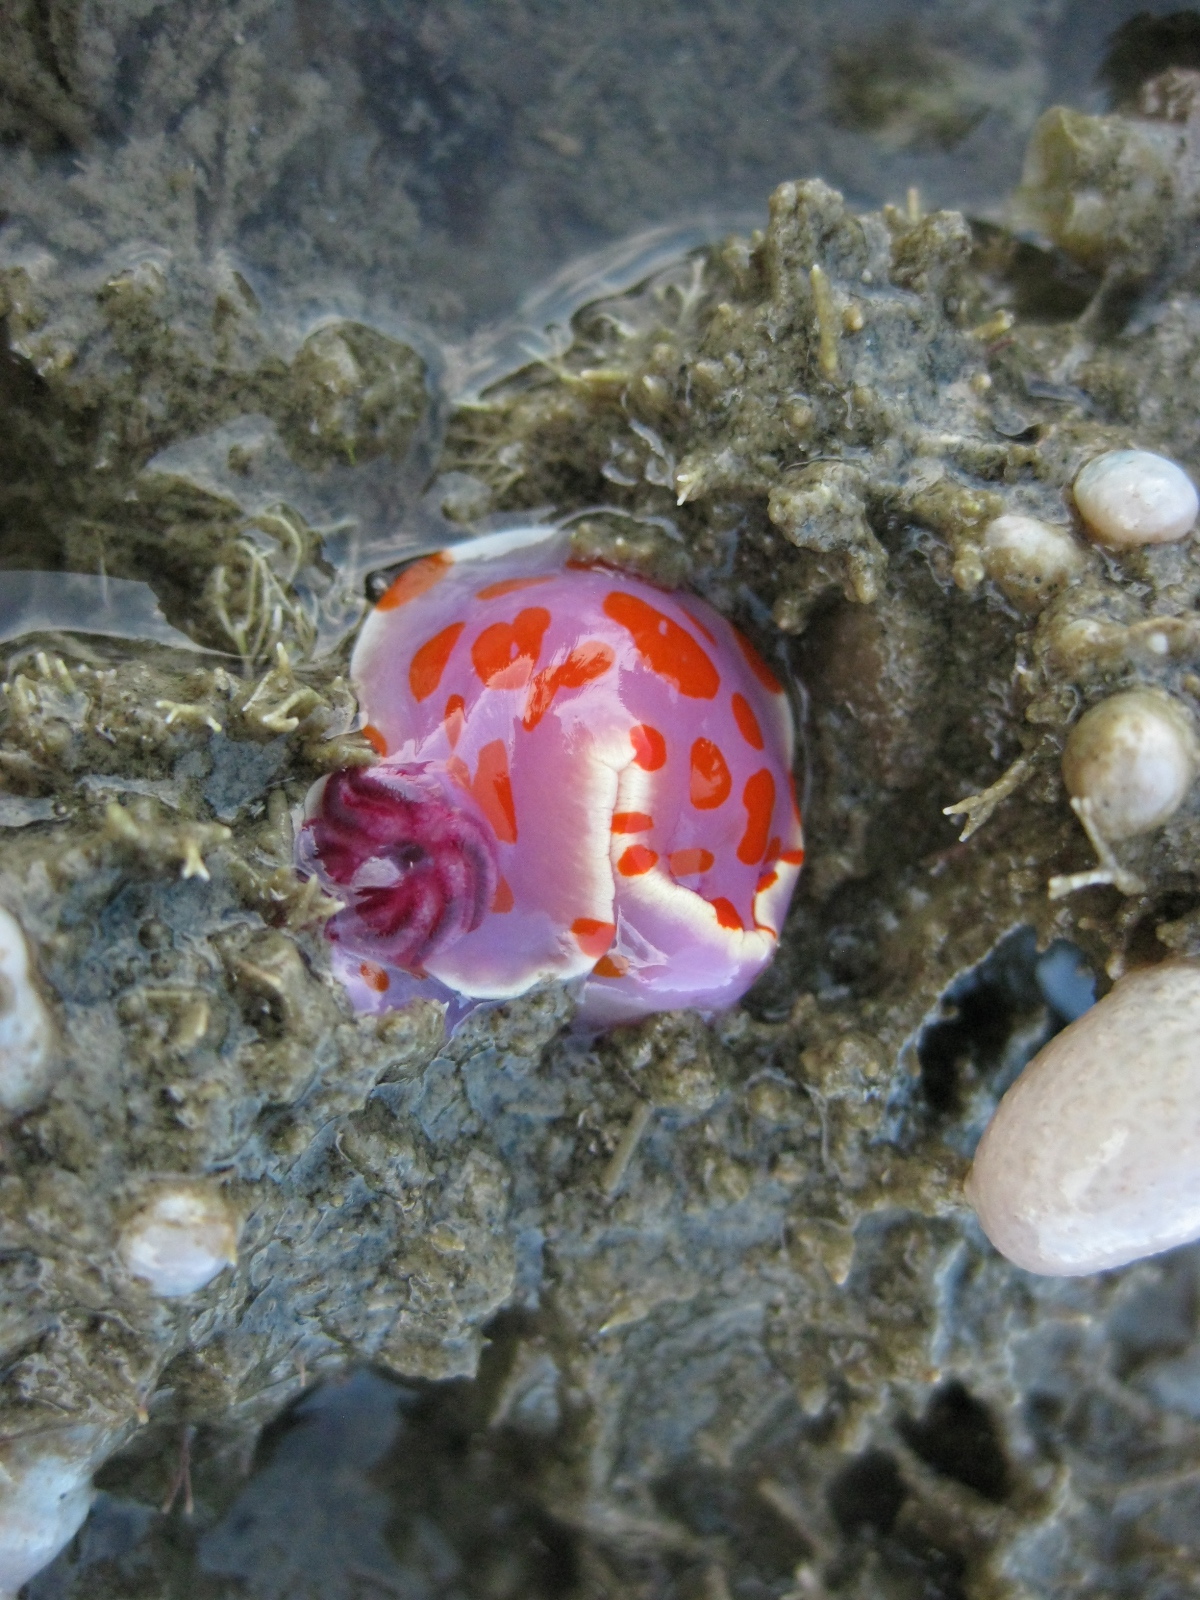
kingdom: Animalia
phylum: Mollusca
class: Gastropoda
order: Nudibranchia
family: Chromodorididae
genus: Ceratosoma
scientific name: Ceratosoma amoenum
